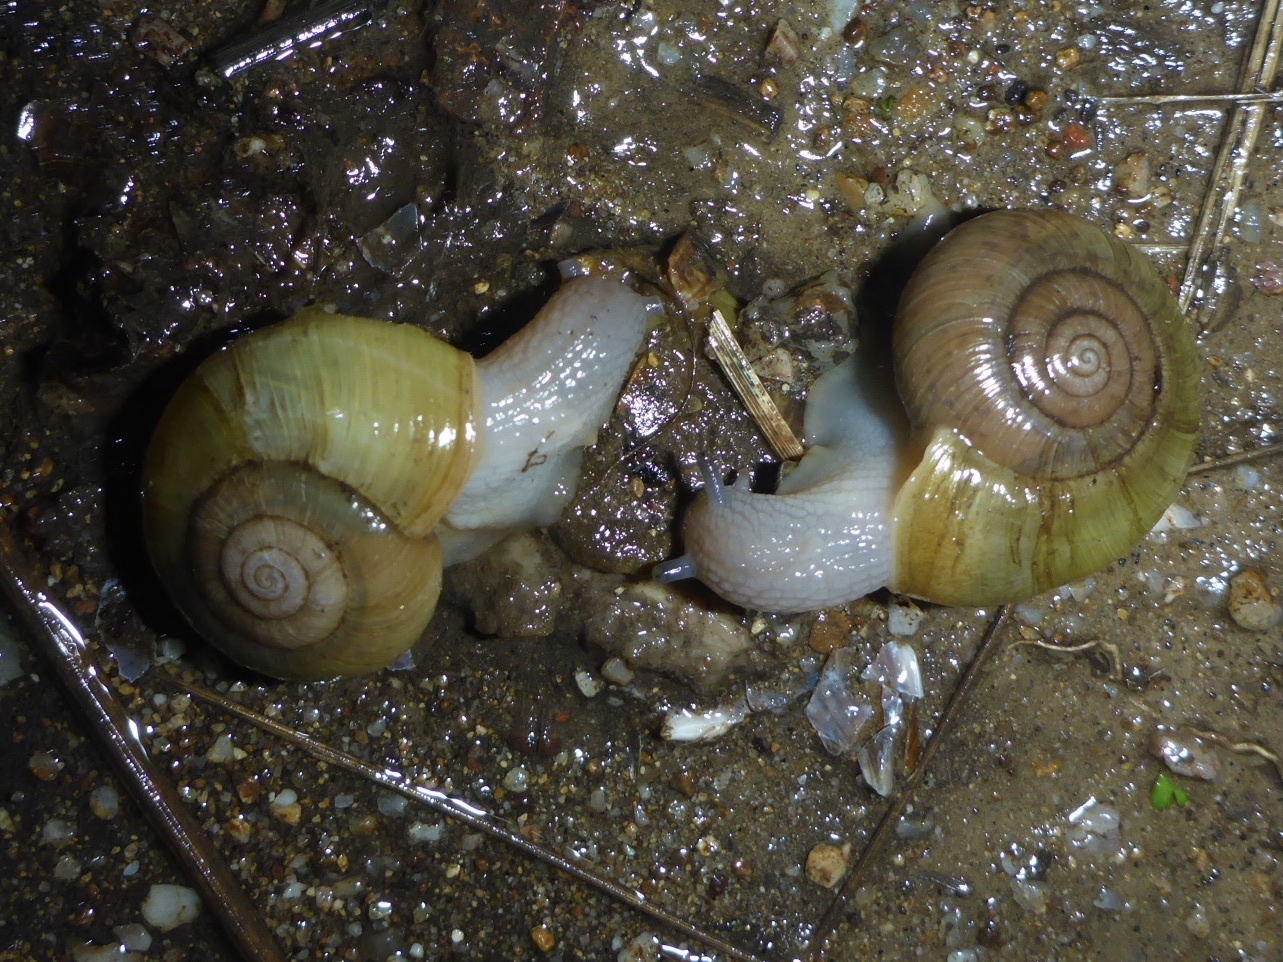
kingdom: Animalia
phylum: Mollusca
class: Gastropoda
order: Stylommatophora
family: Haplotrematidae
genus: Haplotrema
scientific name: Haplotrema minimum
